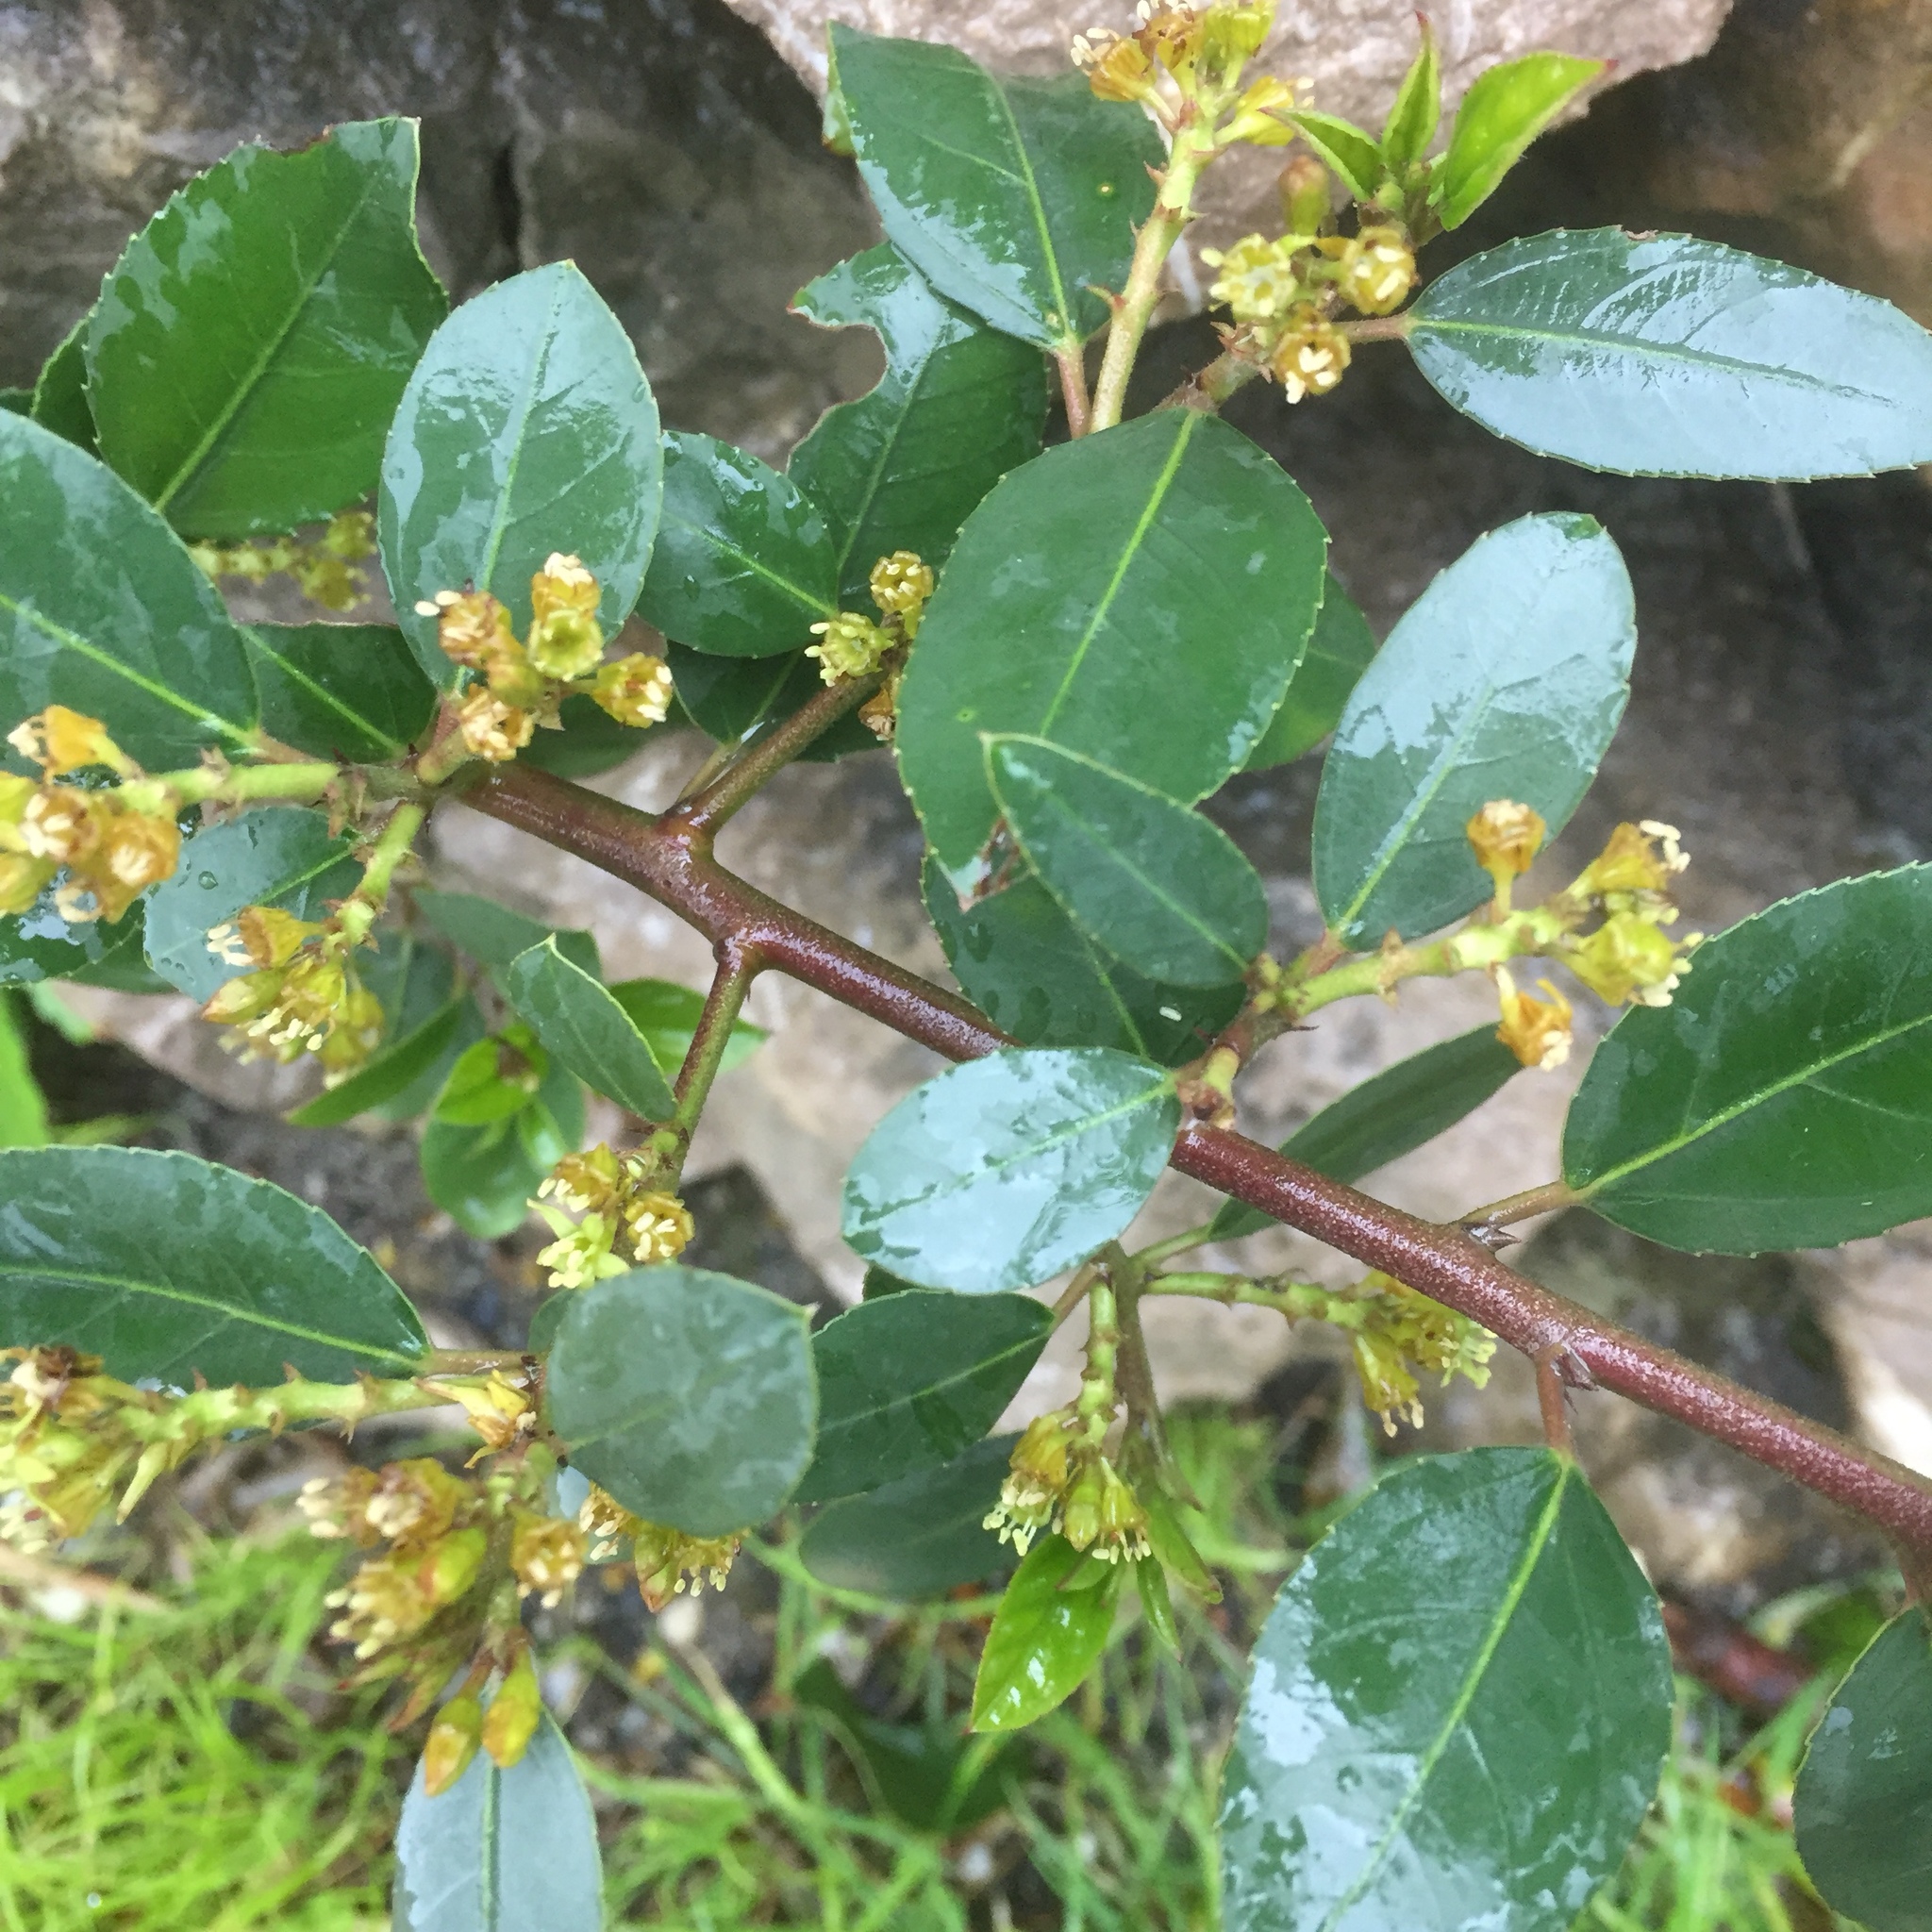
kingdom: Plantae
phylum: Tracheophyta
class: Magnoliopsida
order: Rosales
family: Rhamnaceae
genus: Rhamnus
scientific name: Rhamnus alaternus
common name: Mediterranean buckthorn
